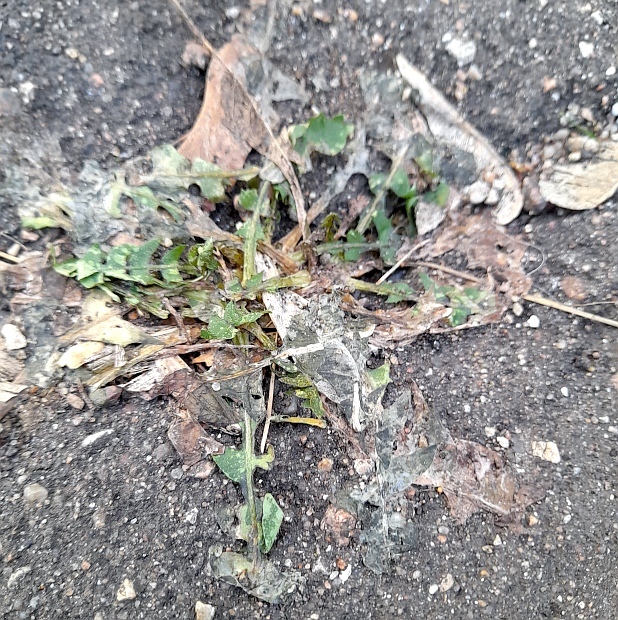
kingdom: Plantae
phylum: Tracheophyta
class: Magnoliopsida
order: Asterales
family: Asteraceae
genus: Taraxacum
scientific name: Taraxacum officinale
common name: Common dandelion
